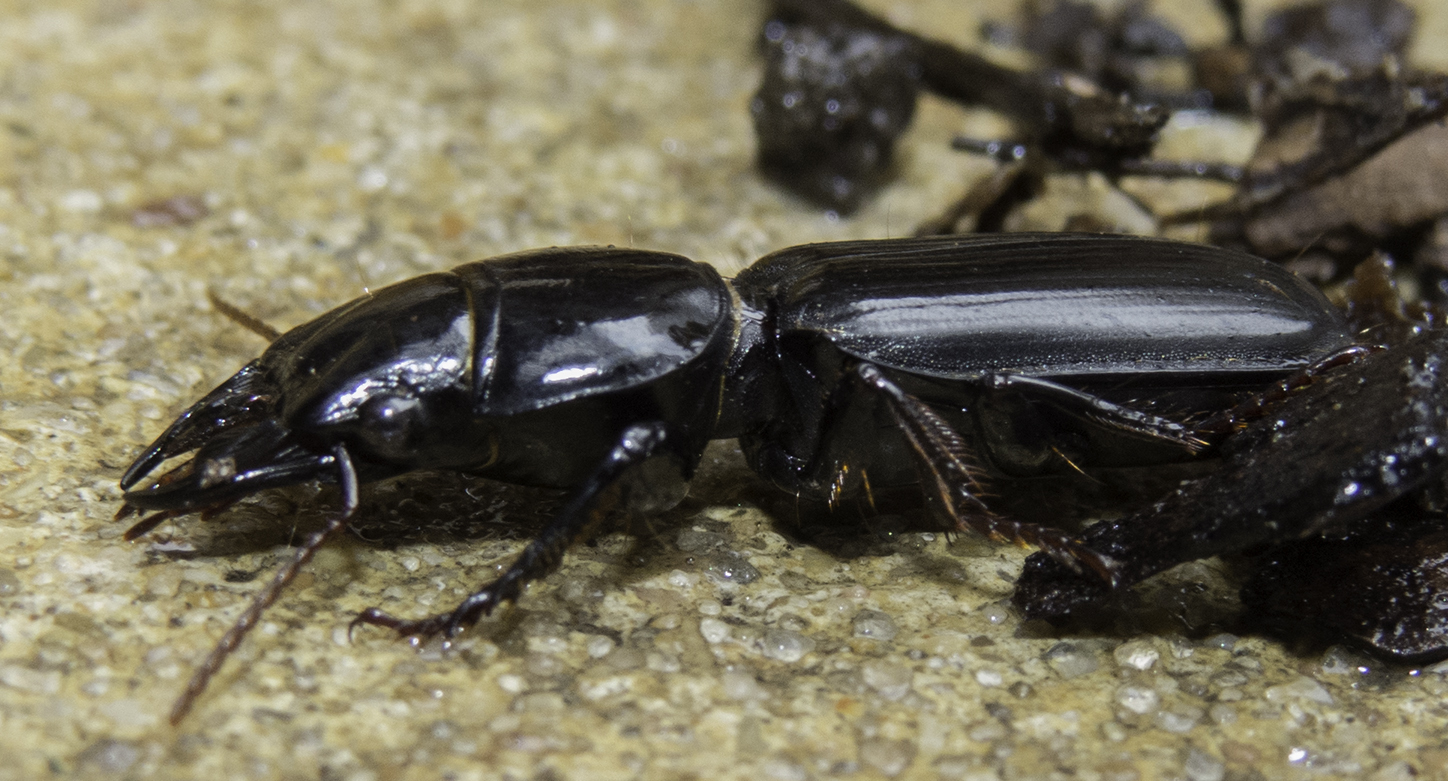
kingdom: Animalia
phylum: Arthropoda
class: Insecta
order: Coleoptera
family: Carabidae
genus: Scarites
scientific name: Scarites subterraneus
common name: Big-headed ground beetle
